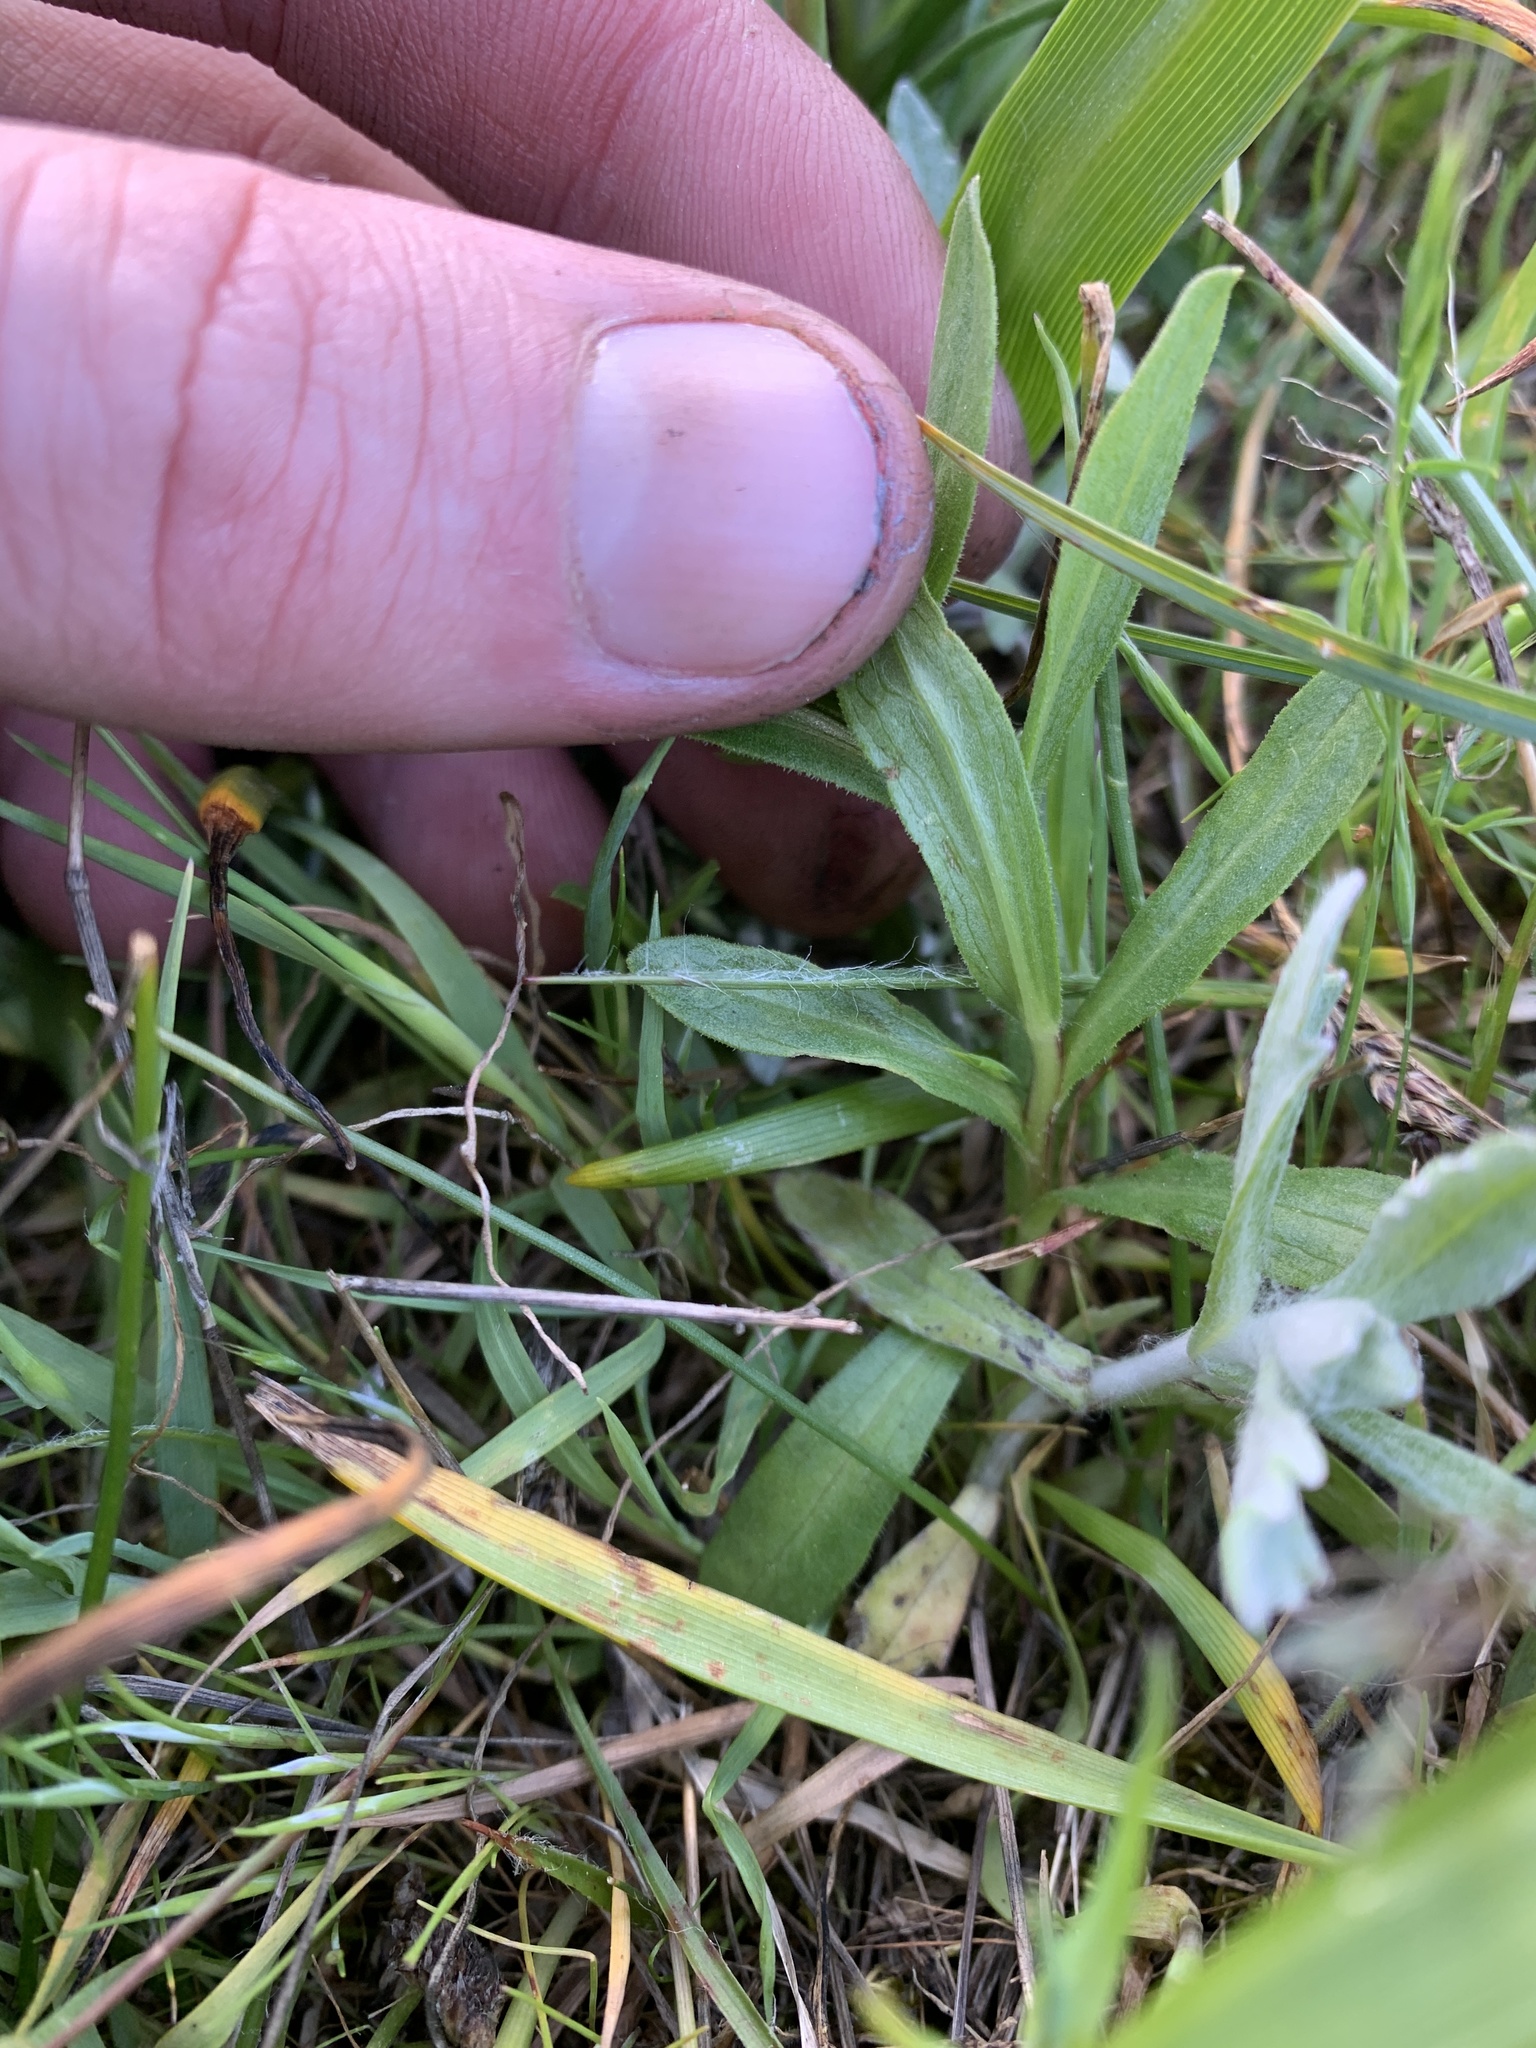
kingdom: Plantae
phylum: Tracheophyta
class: Magnoliopsida
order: Asterales
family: Asteraceae
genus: Sericocarpus
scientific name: Sericocarpus rigidus
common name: Columbia white-top aster
